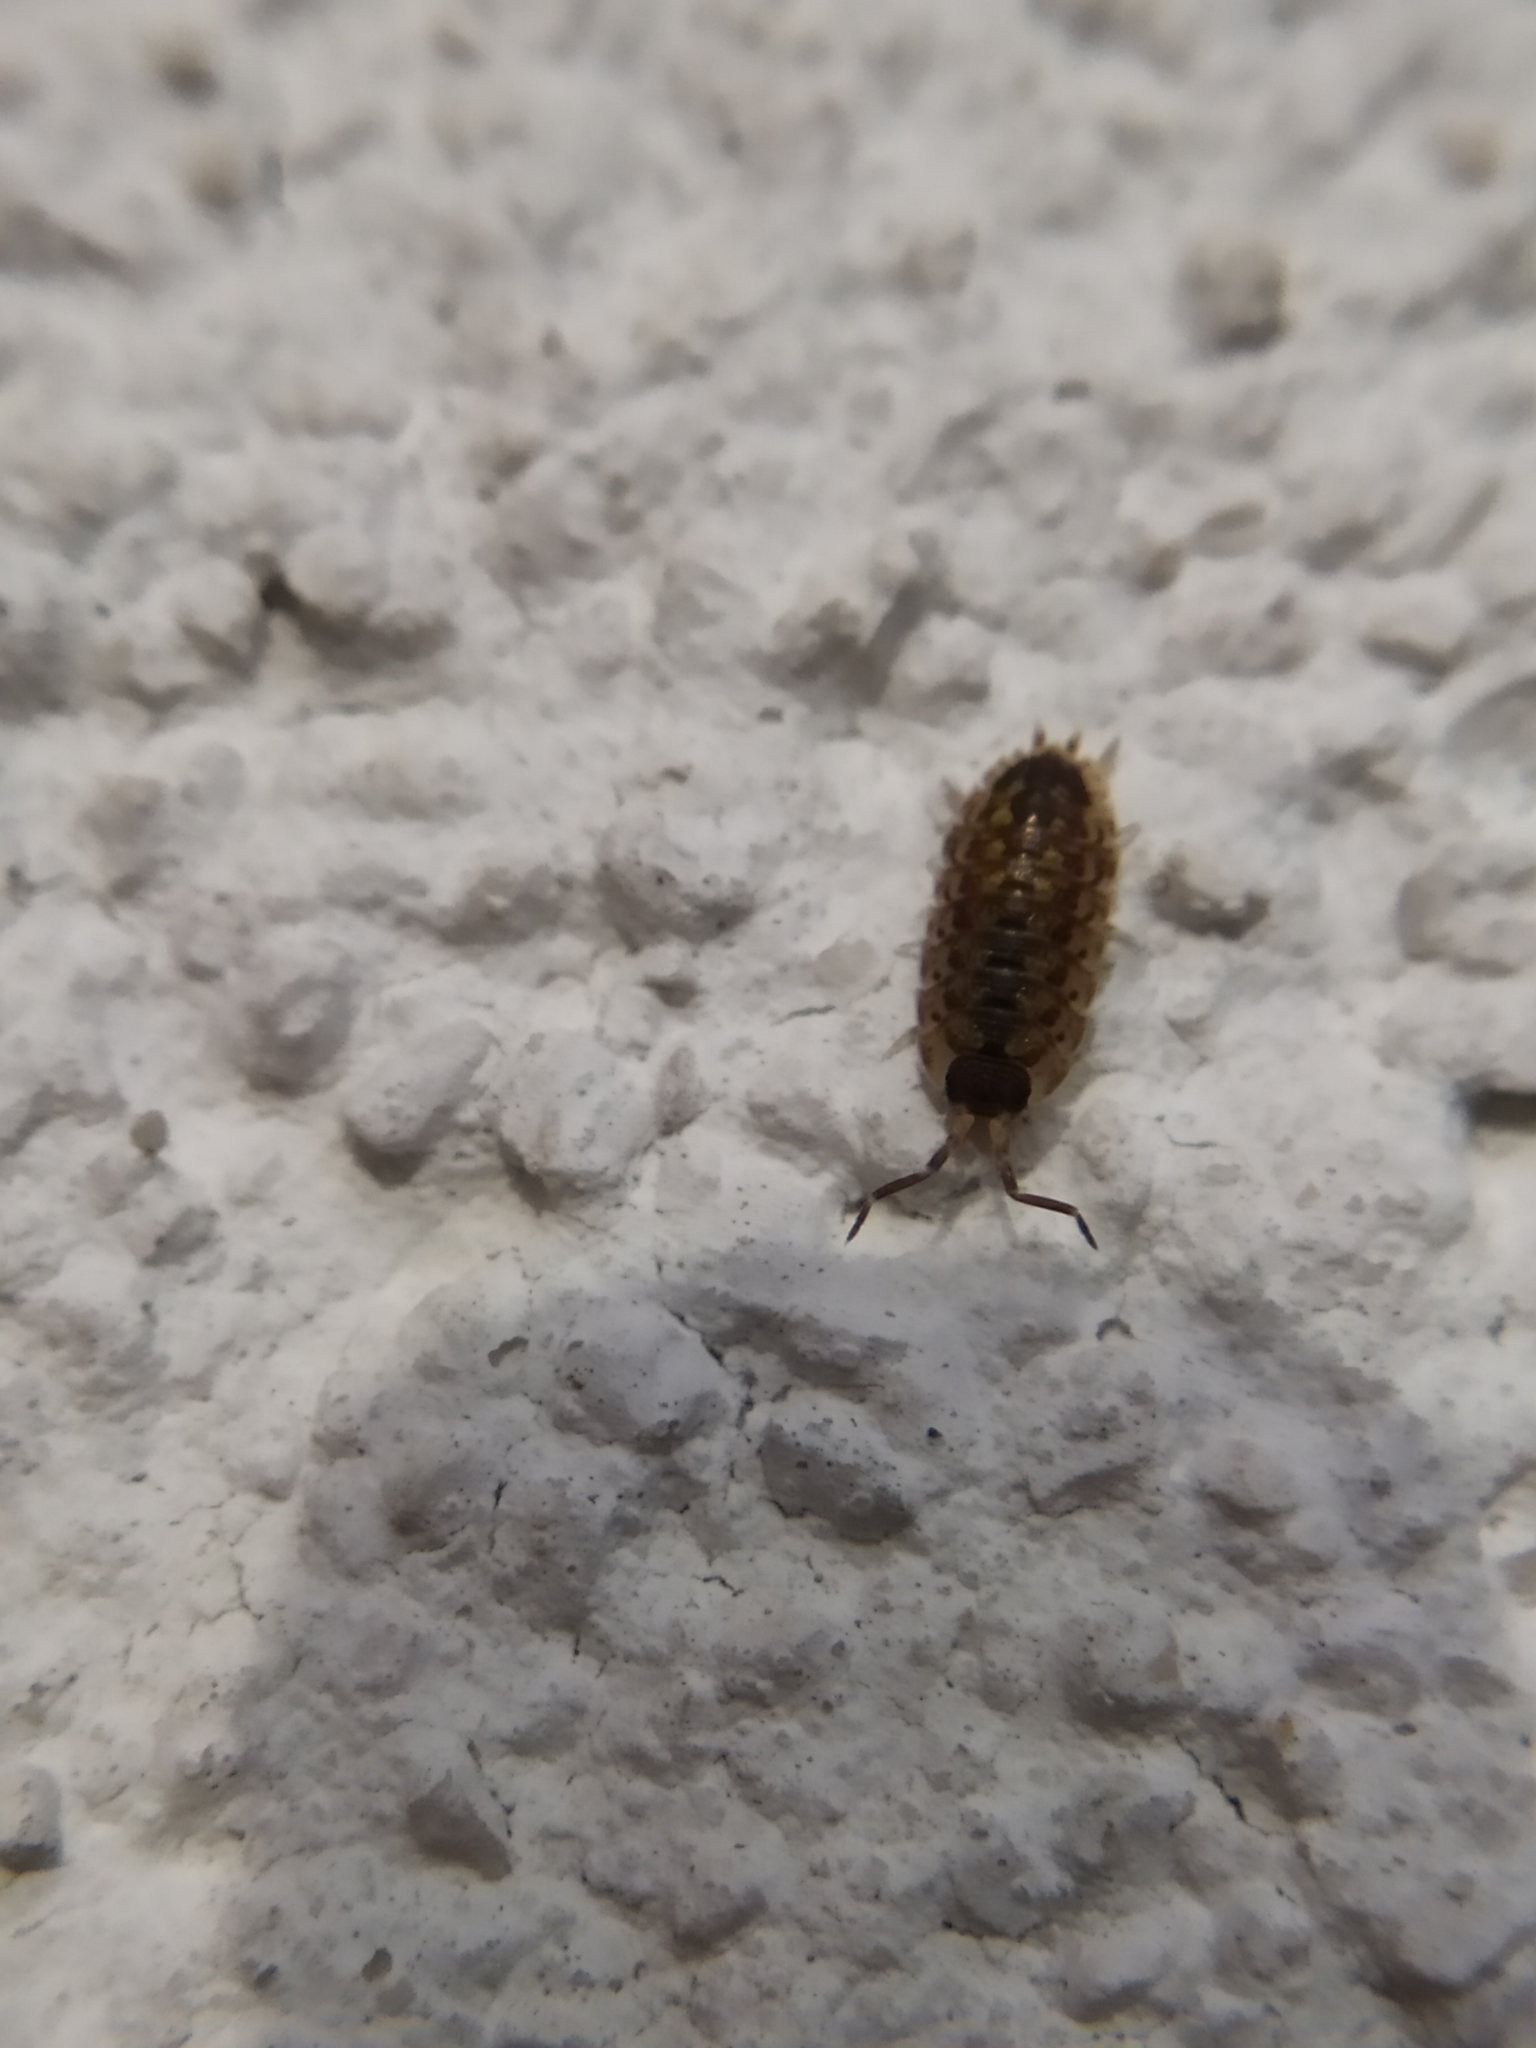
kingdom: Animalia
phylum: Arthropoda
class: Malacostraca
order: Isopoda
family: Porcellionidae
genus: Porcellio
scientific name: Porcellio spinicornis
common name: Painted woodlouse
